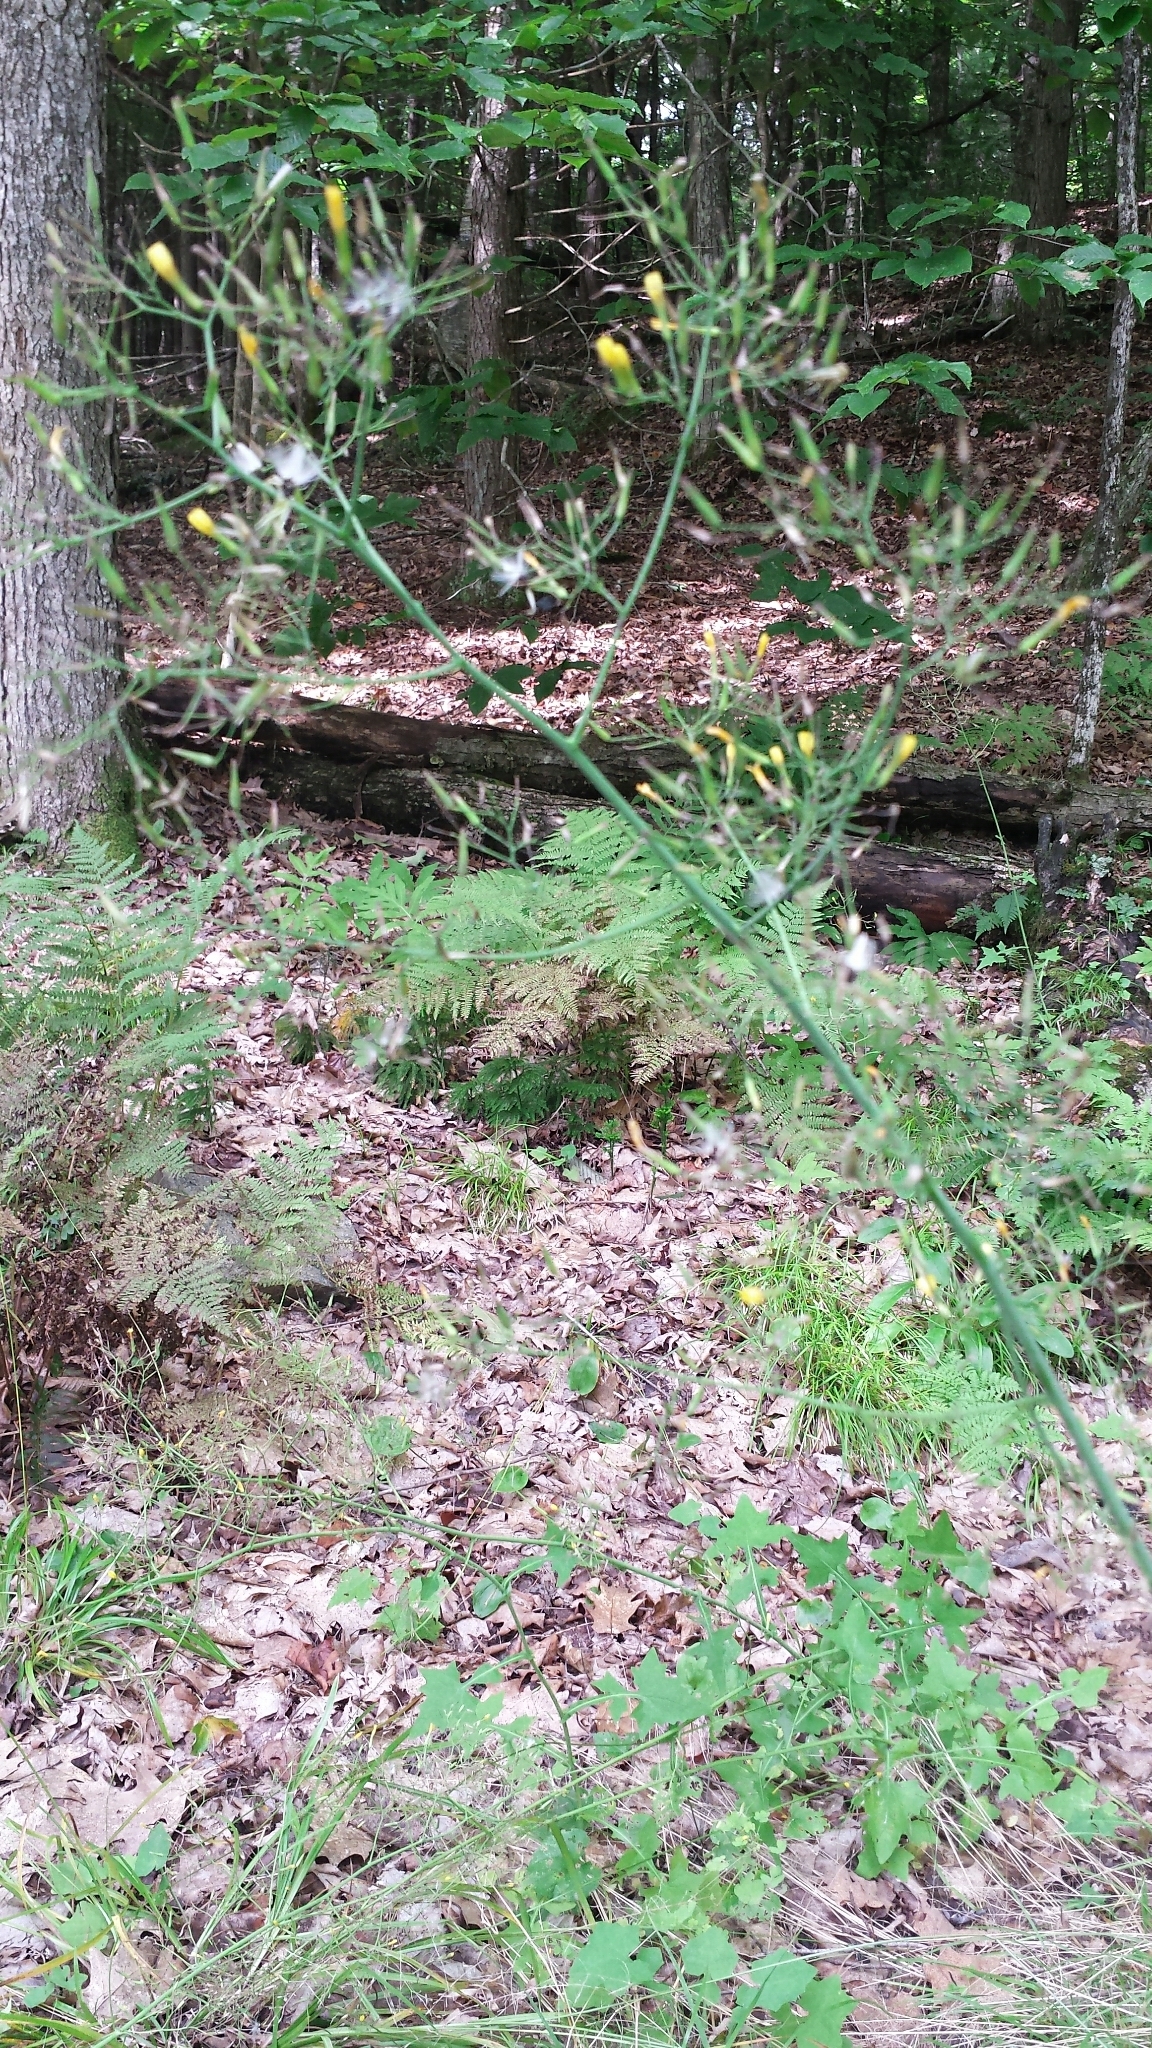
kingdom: Plantae
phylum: Tracheophyta
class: Magnoliopsida
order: Asterales
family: Asteraceae
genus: Mycelis
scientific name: Mycelis muralis
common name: Wall lettuce
